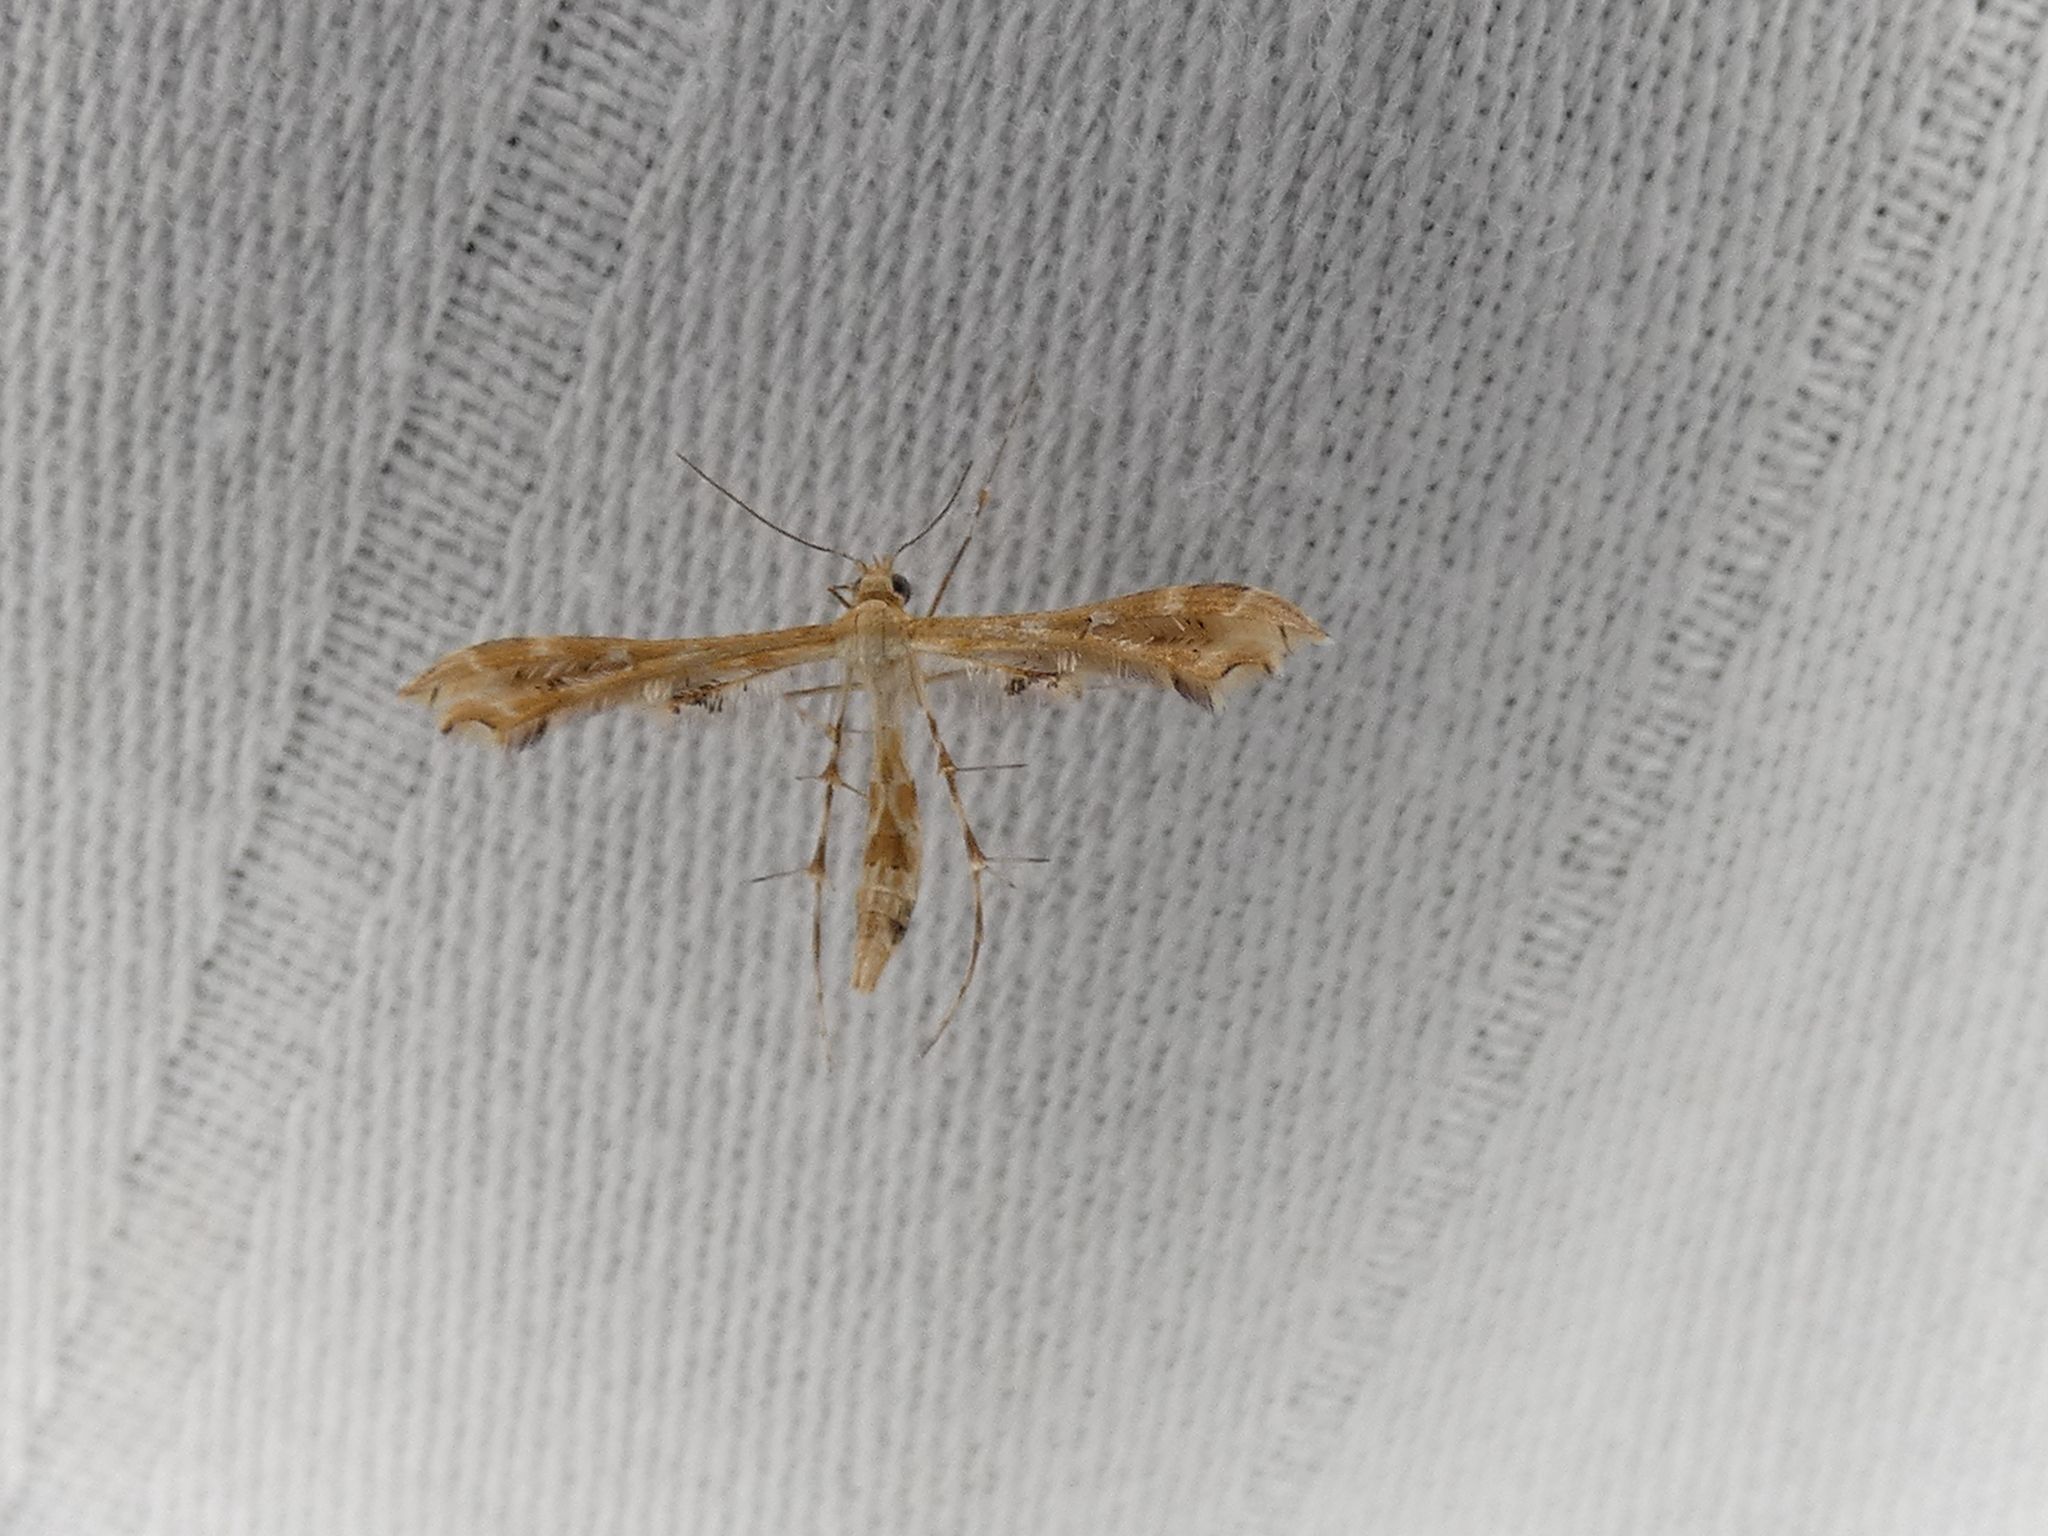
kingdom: Animalia
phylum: Arthropoda
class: Insecta
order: Lepidoptera
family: Pterophoridae
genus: Sphenarches
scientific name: Sphenarches anisodactylus
